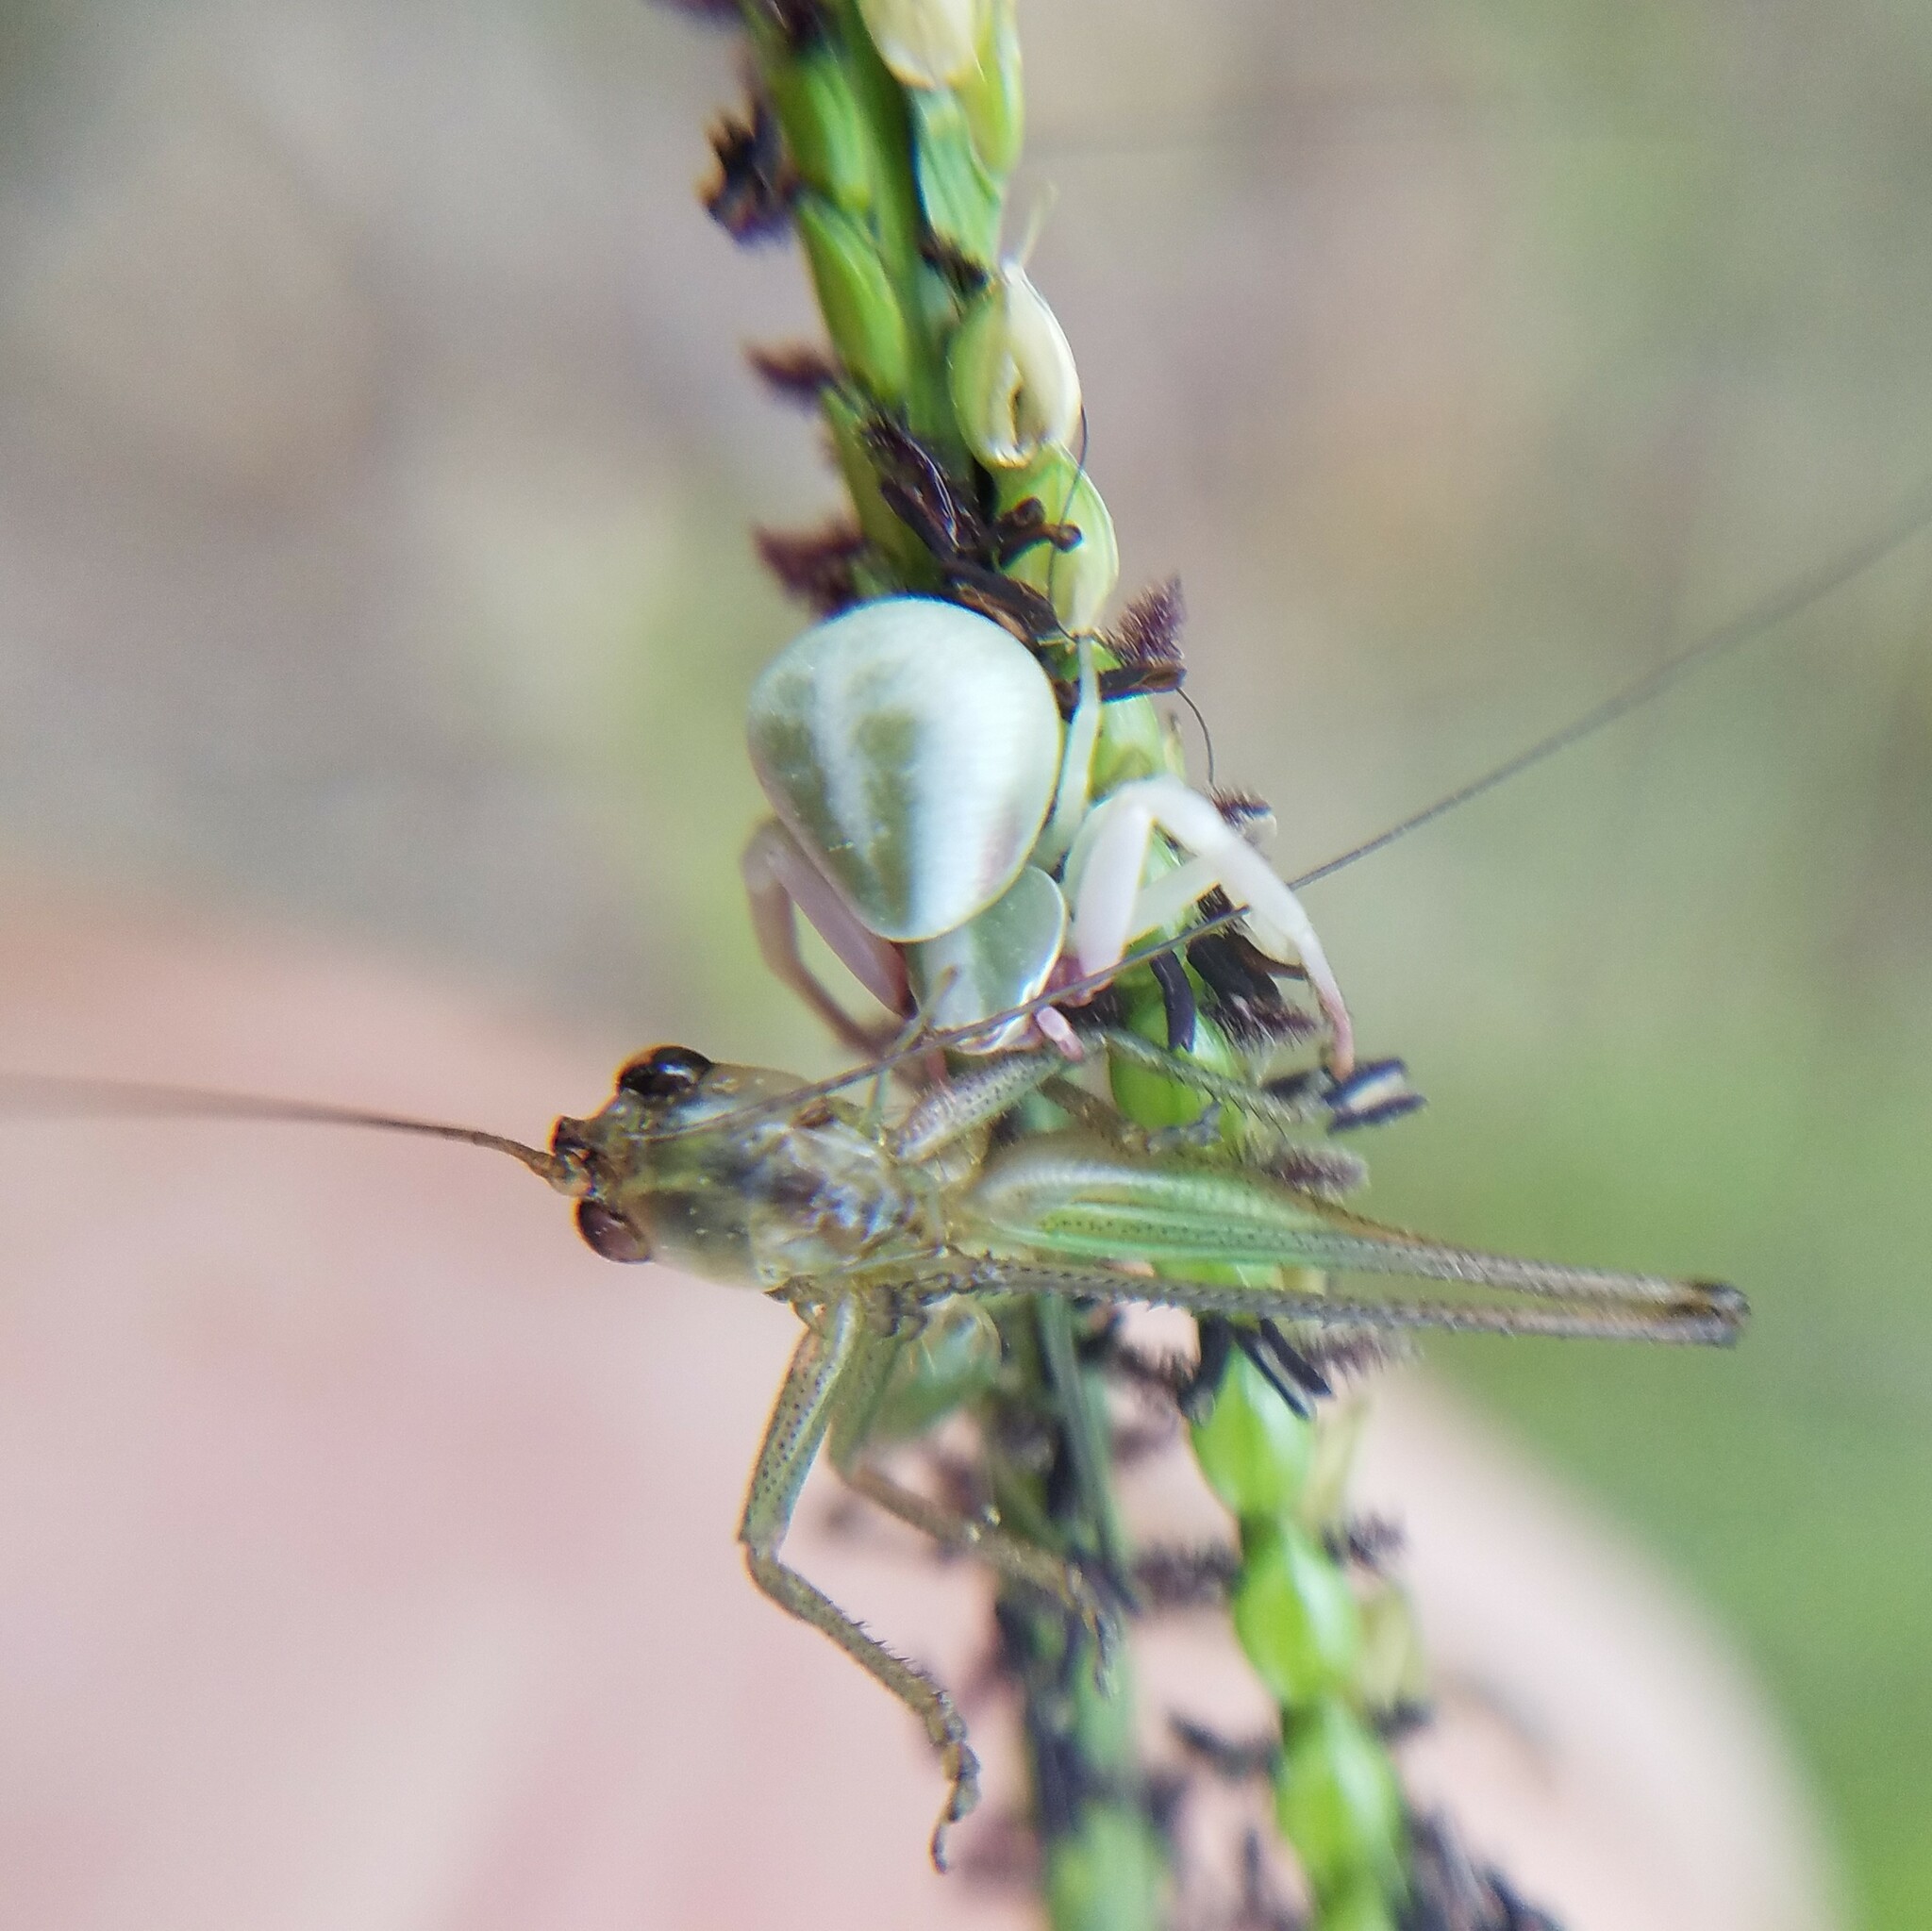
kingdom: Animalia
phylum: Arthropoda
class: Arachnida
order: Araneae
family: Thomisidae
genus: Misumenoides
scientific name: Misumenoides formosipes
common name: White-banded crab spider
